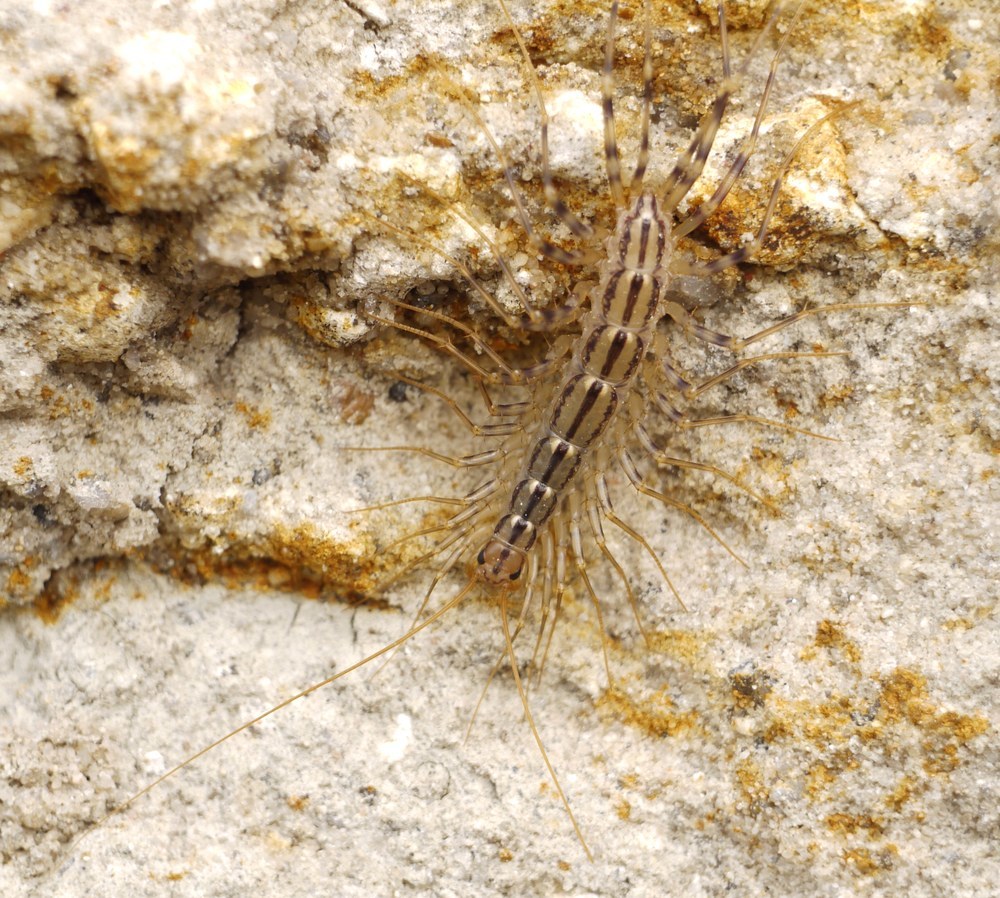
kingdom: Animalia
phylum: Arthropoda
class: Chilopoda
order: Scutigeromorpha
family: Scutigeridae
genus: Scutigera
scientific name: Scutigera coleoptrata
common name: House centipede
